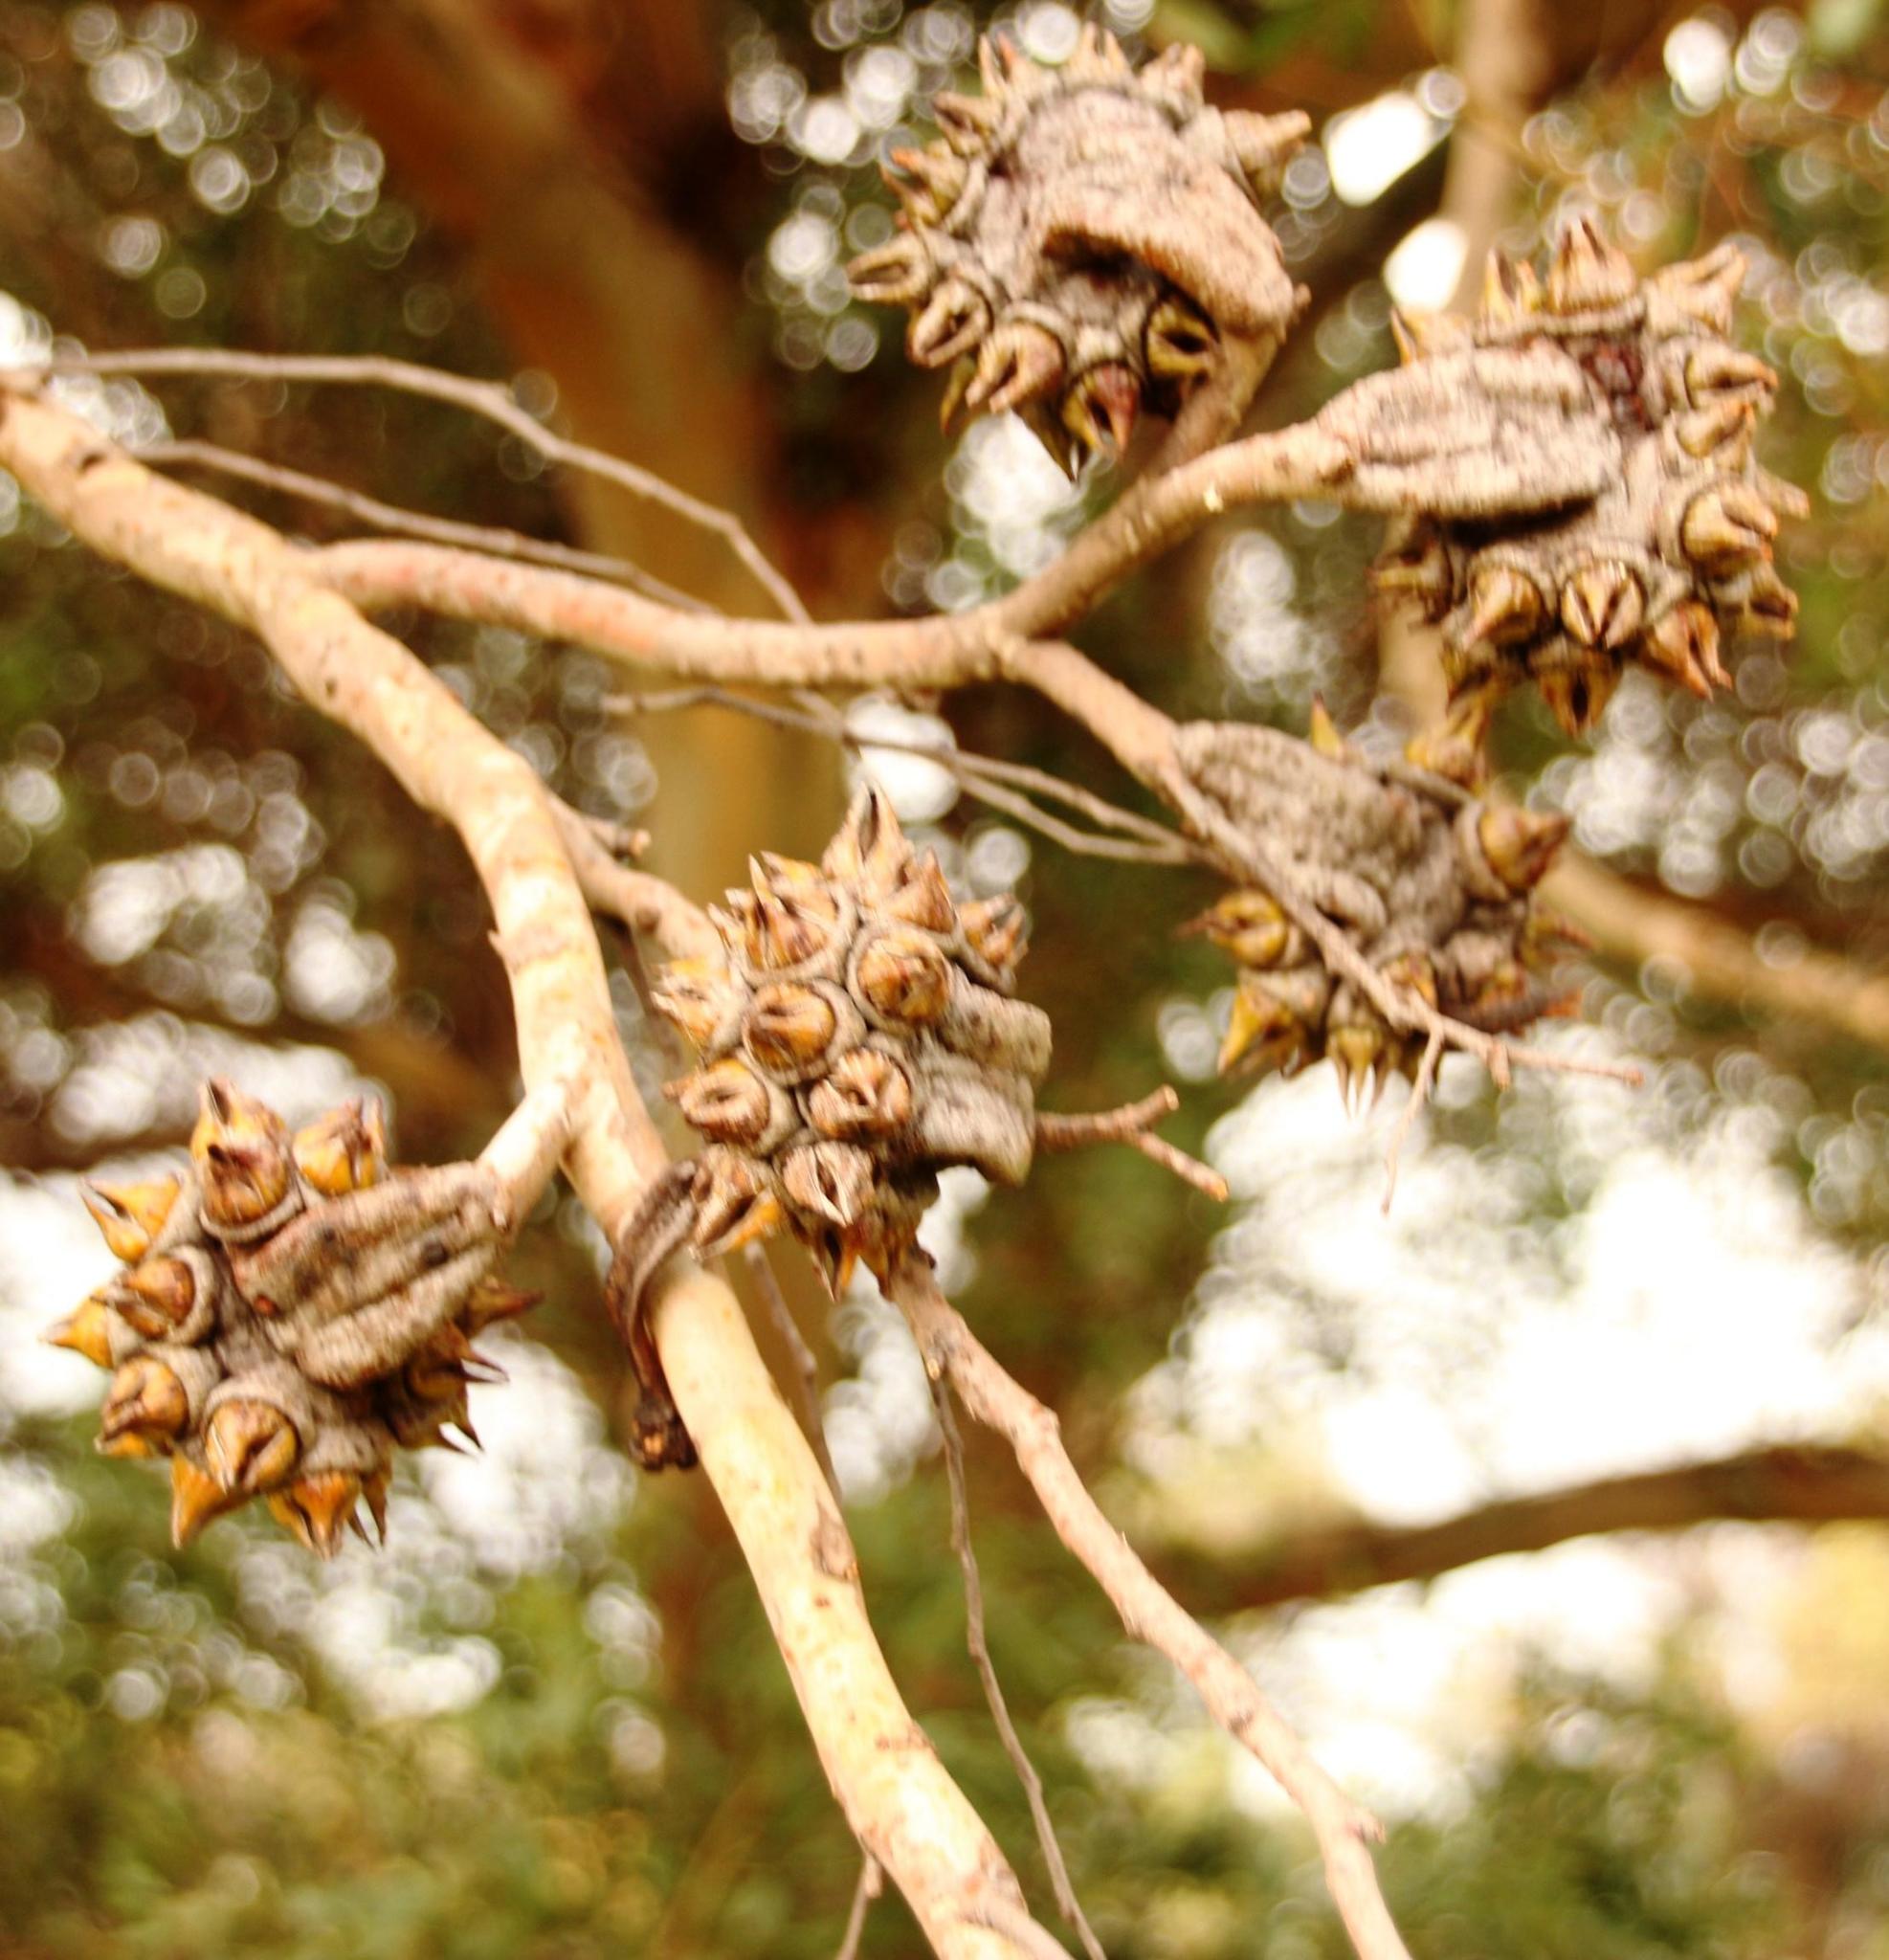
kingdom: Plantae
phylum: Tracheophyta
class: Magnoliopsida
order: Myrtales
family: Myrtaceae
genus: Eucalyptus
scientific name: Eucalyptus conferruminata
